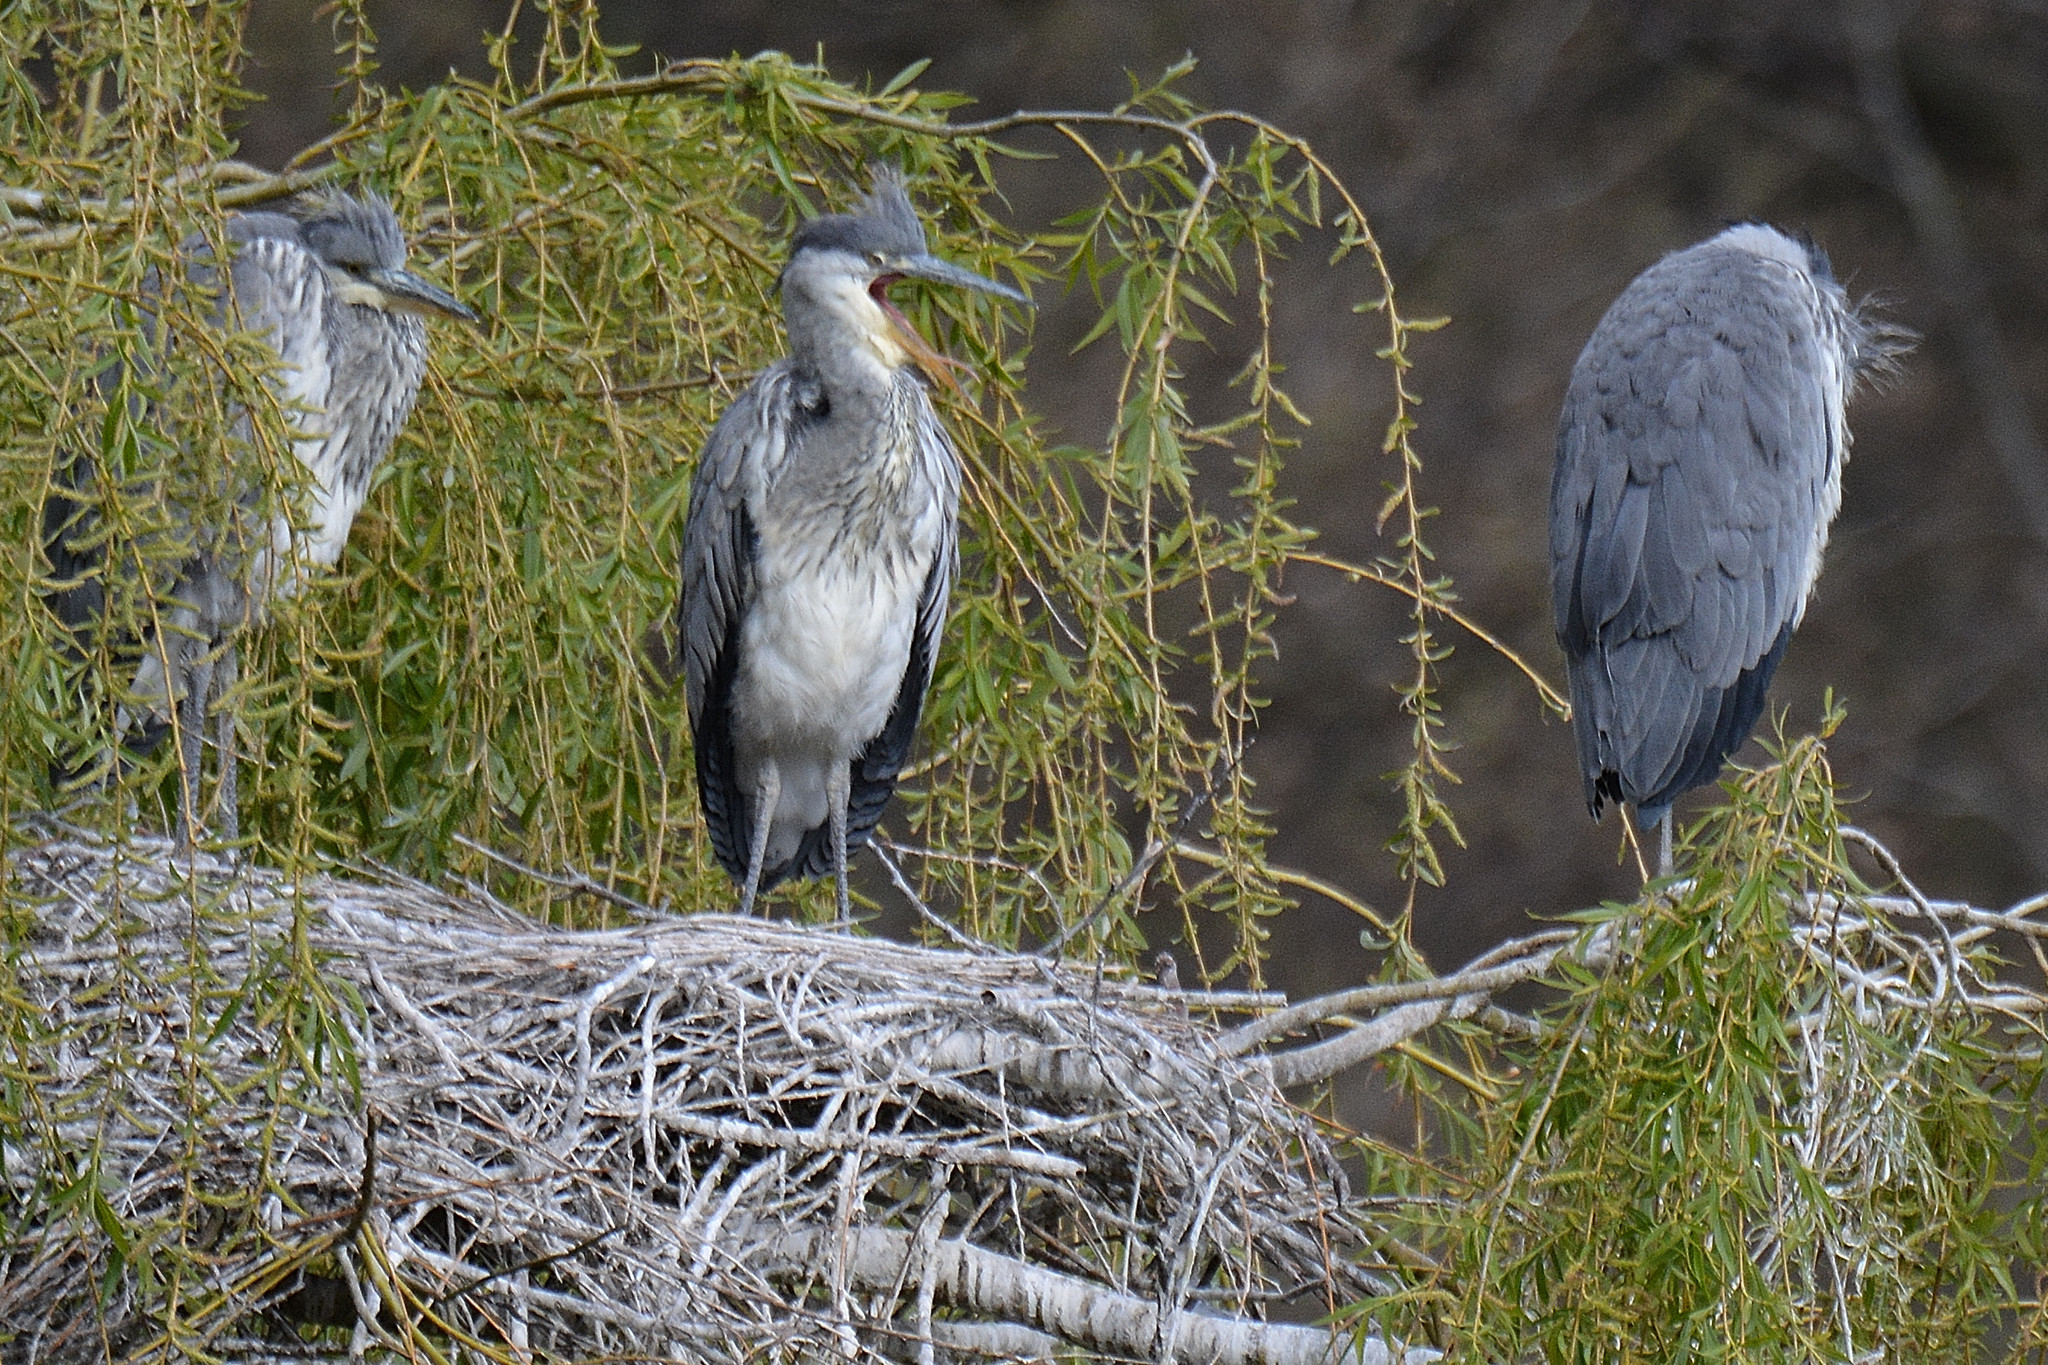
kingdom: Animalia
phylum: Chordata
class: Aves
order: Pelecaniformes
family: Ardeidae
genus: Ardea
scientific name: Ardea cinerea
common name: Grey heron
